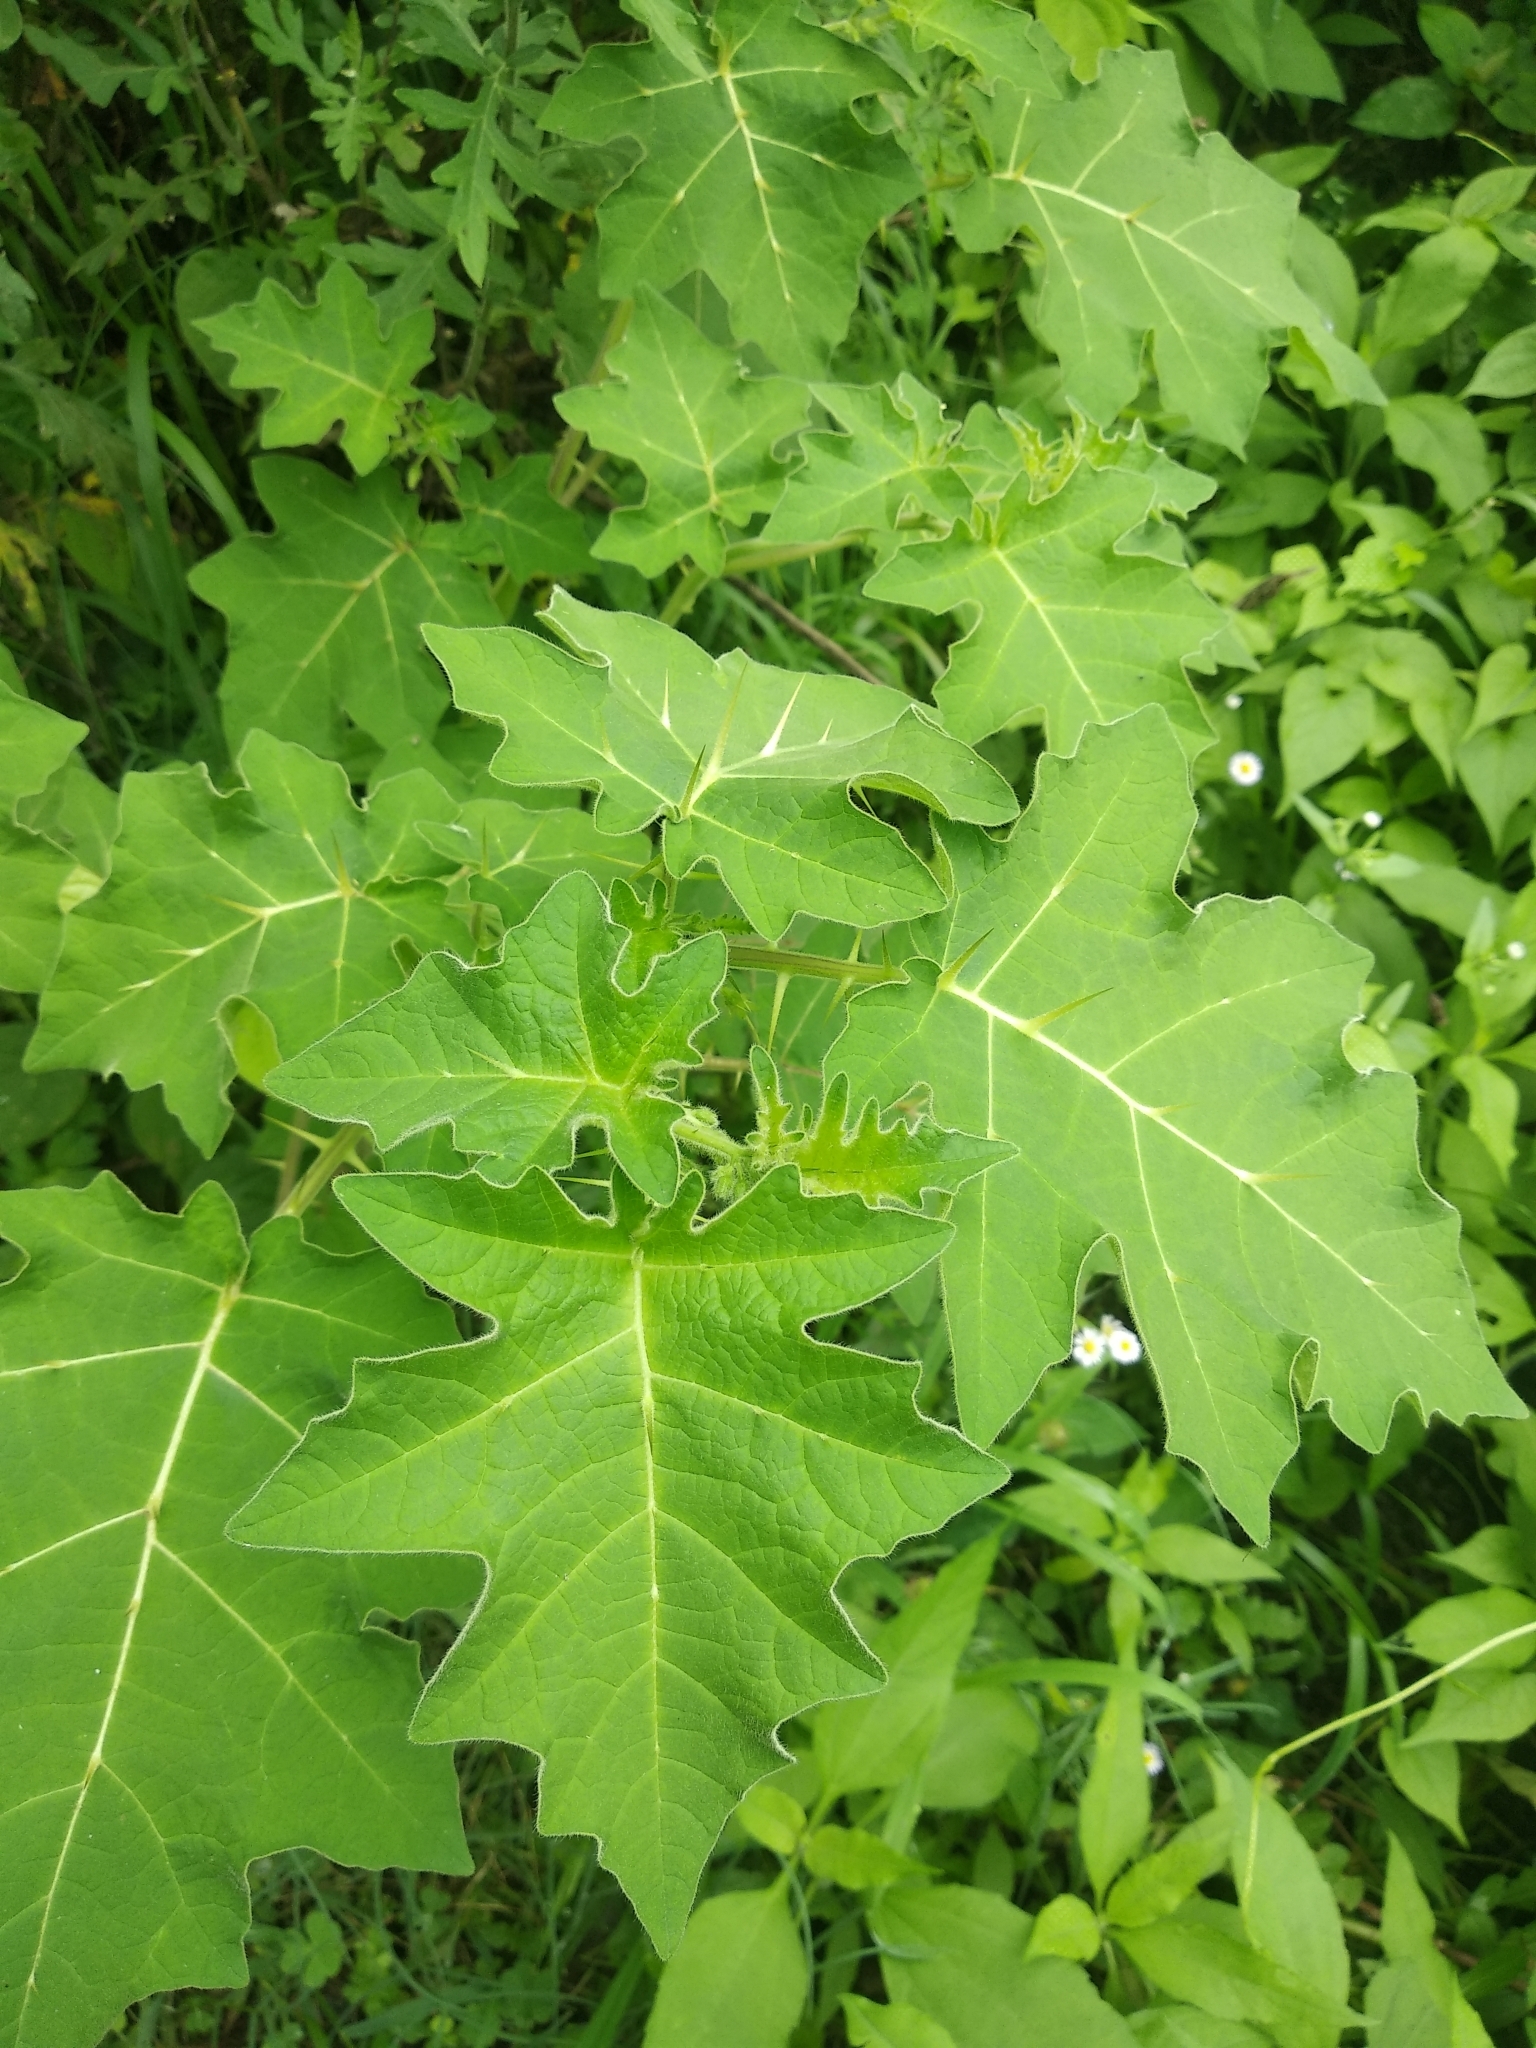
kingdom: Plantae
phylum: Tracheophyta
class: Magnoliopsida
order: Solanales
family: Solanaceae
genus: Solanum
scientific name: Solanum viarum
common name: Tropical soda apple
